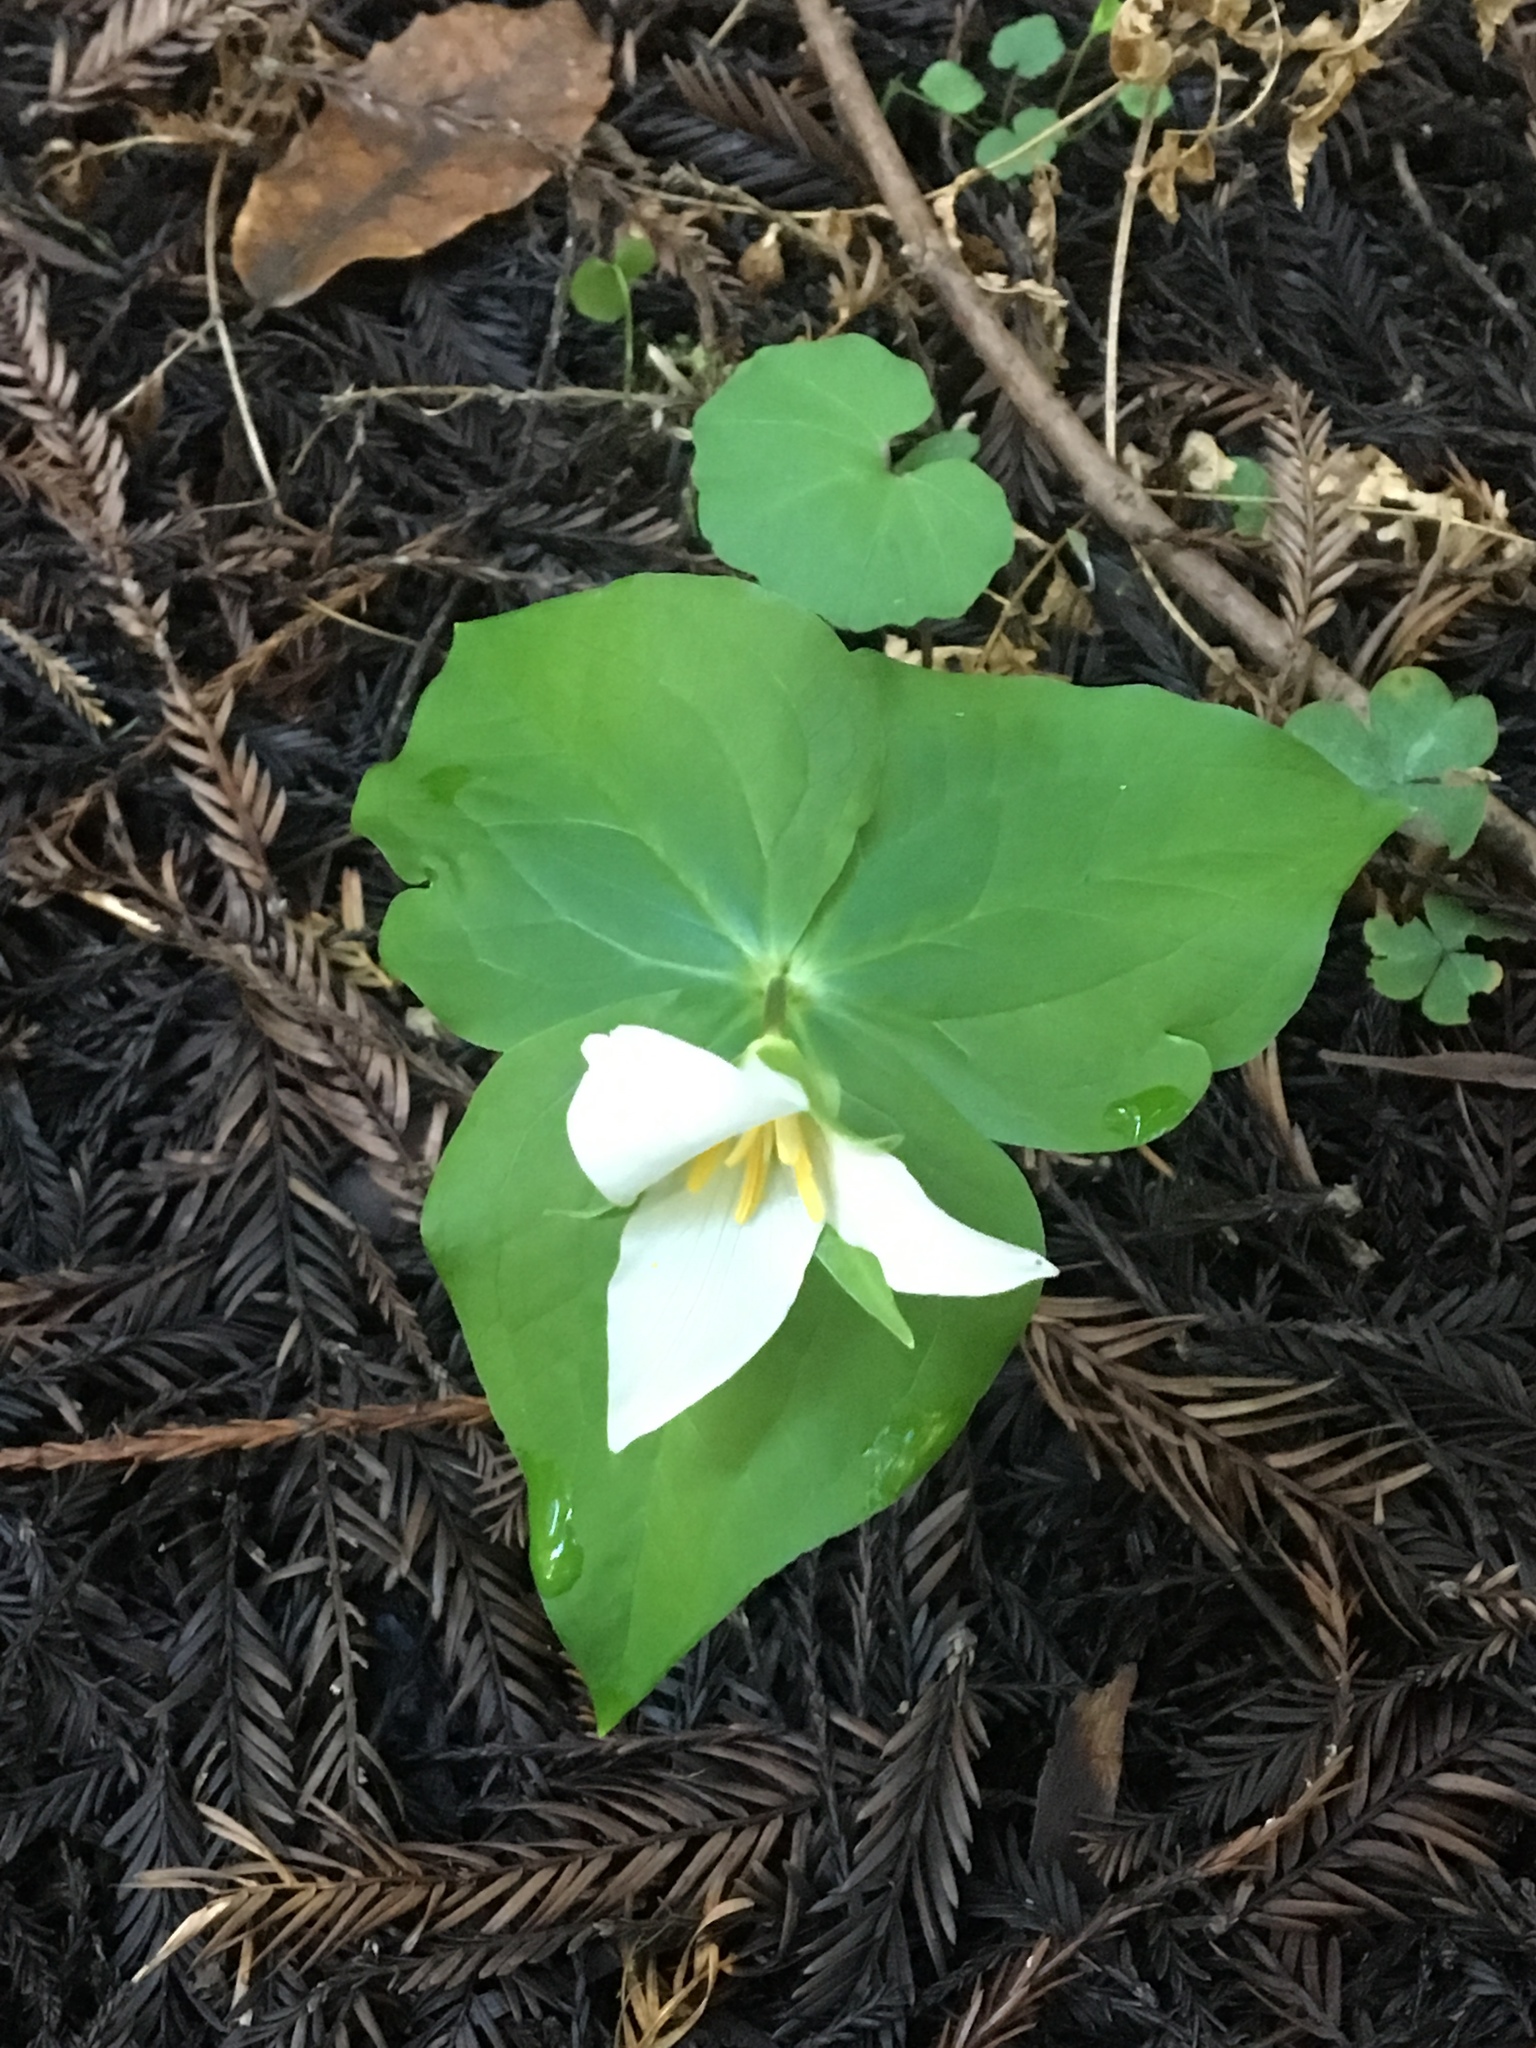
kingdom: Plantae
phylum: Tracheophyta
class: Liliopsida
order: Liliales
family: Melanthiaceae
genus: Trillium
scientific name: Trillium ovatum
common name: Pacific trillium
